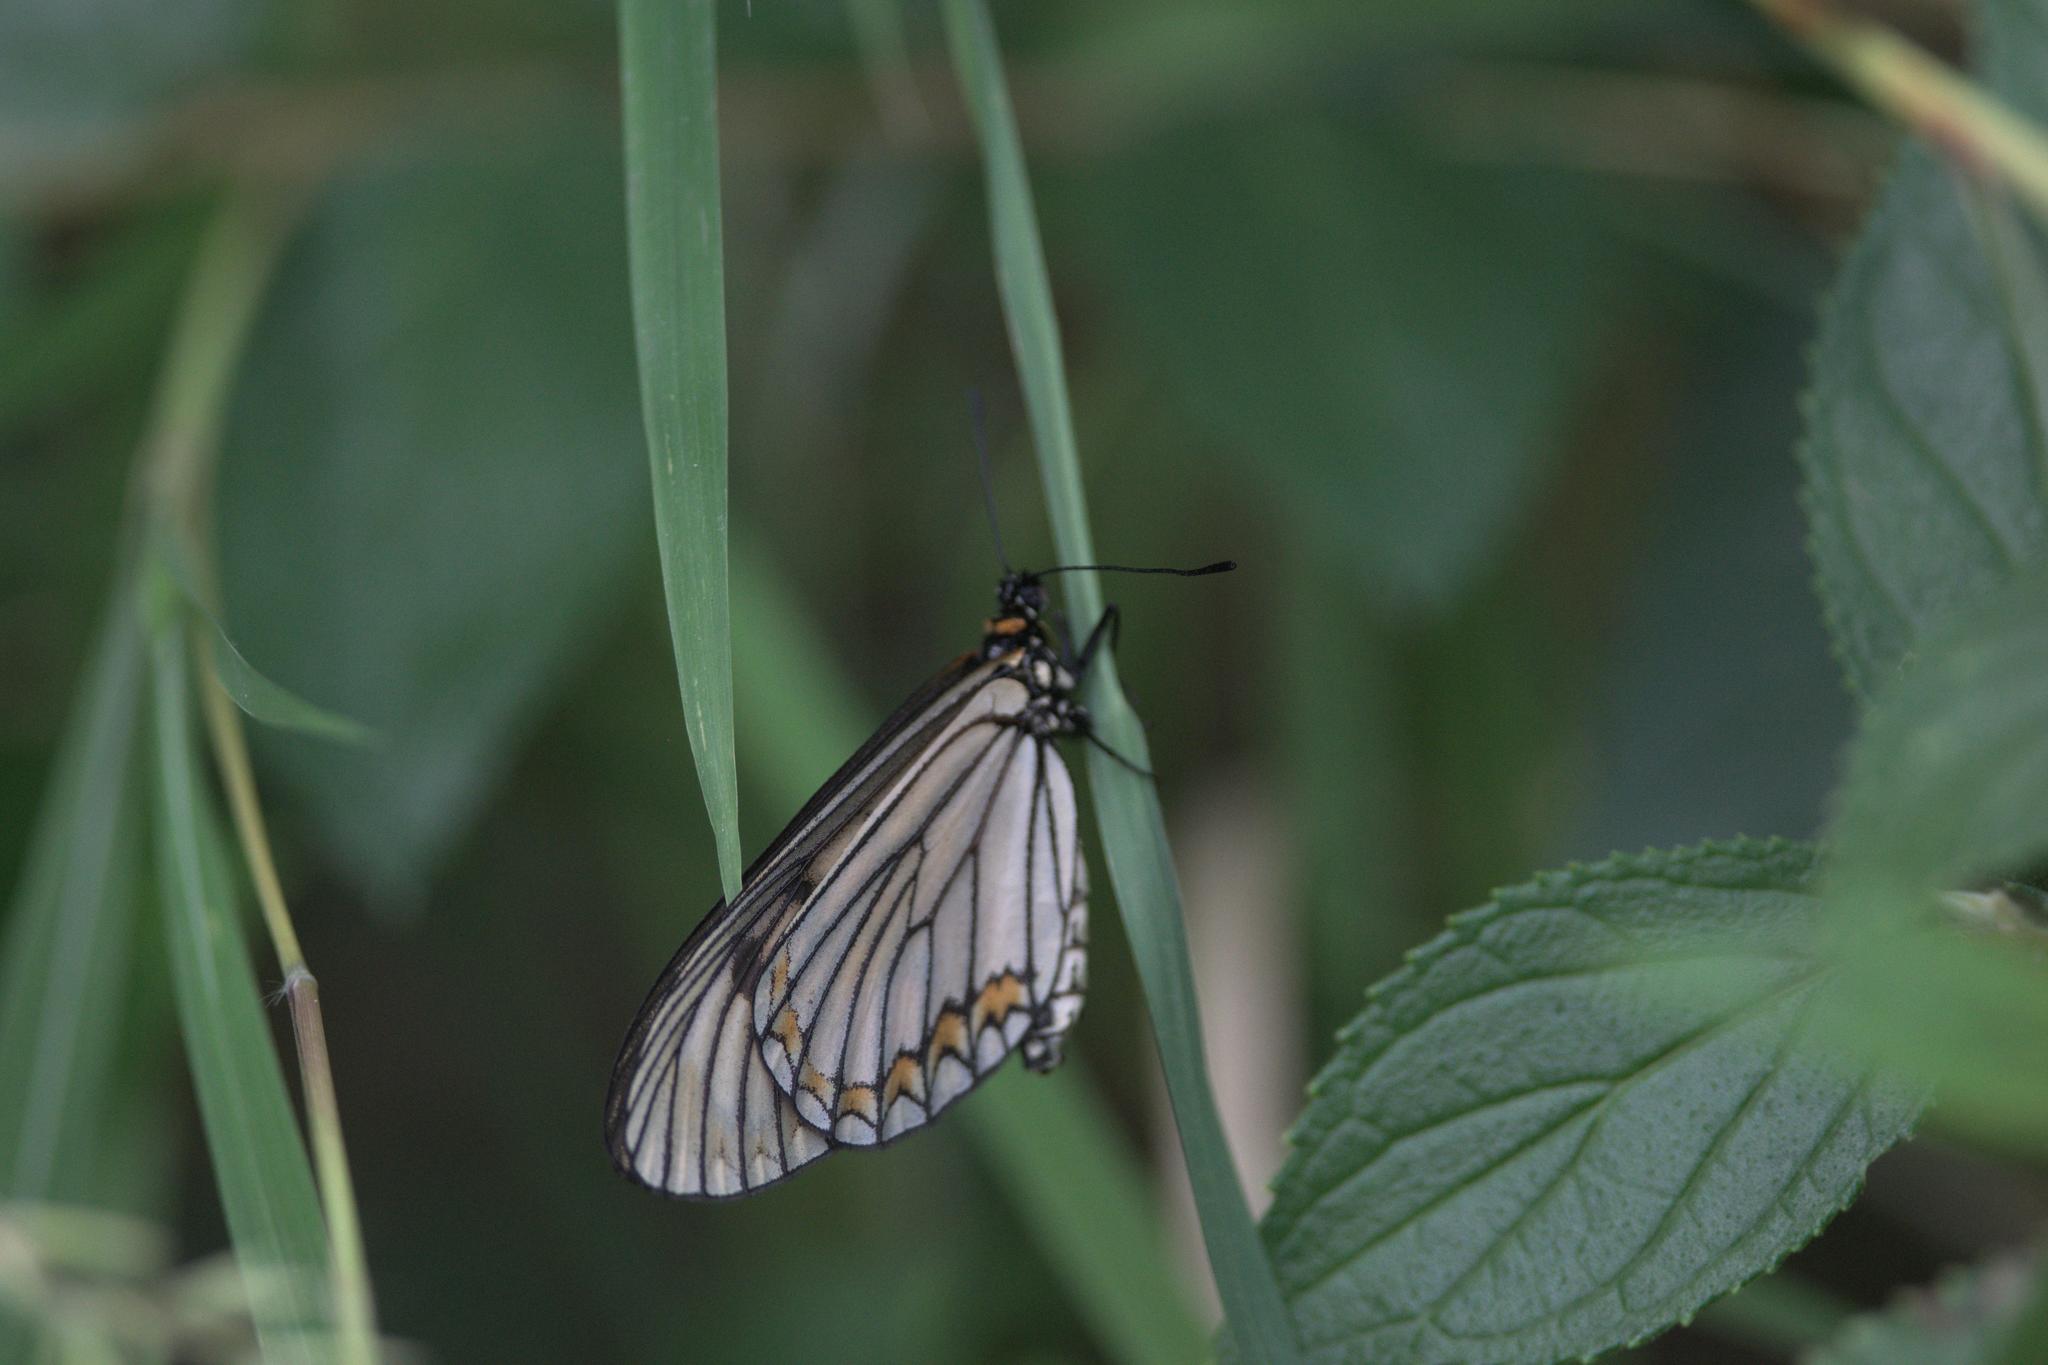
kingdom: Animalia
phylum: Arthropoda
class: Insecta
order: Lepidoptera
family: Nymphalidae
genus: Acraea
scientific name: Acraea Telchinia issoria
